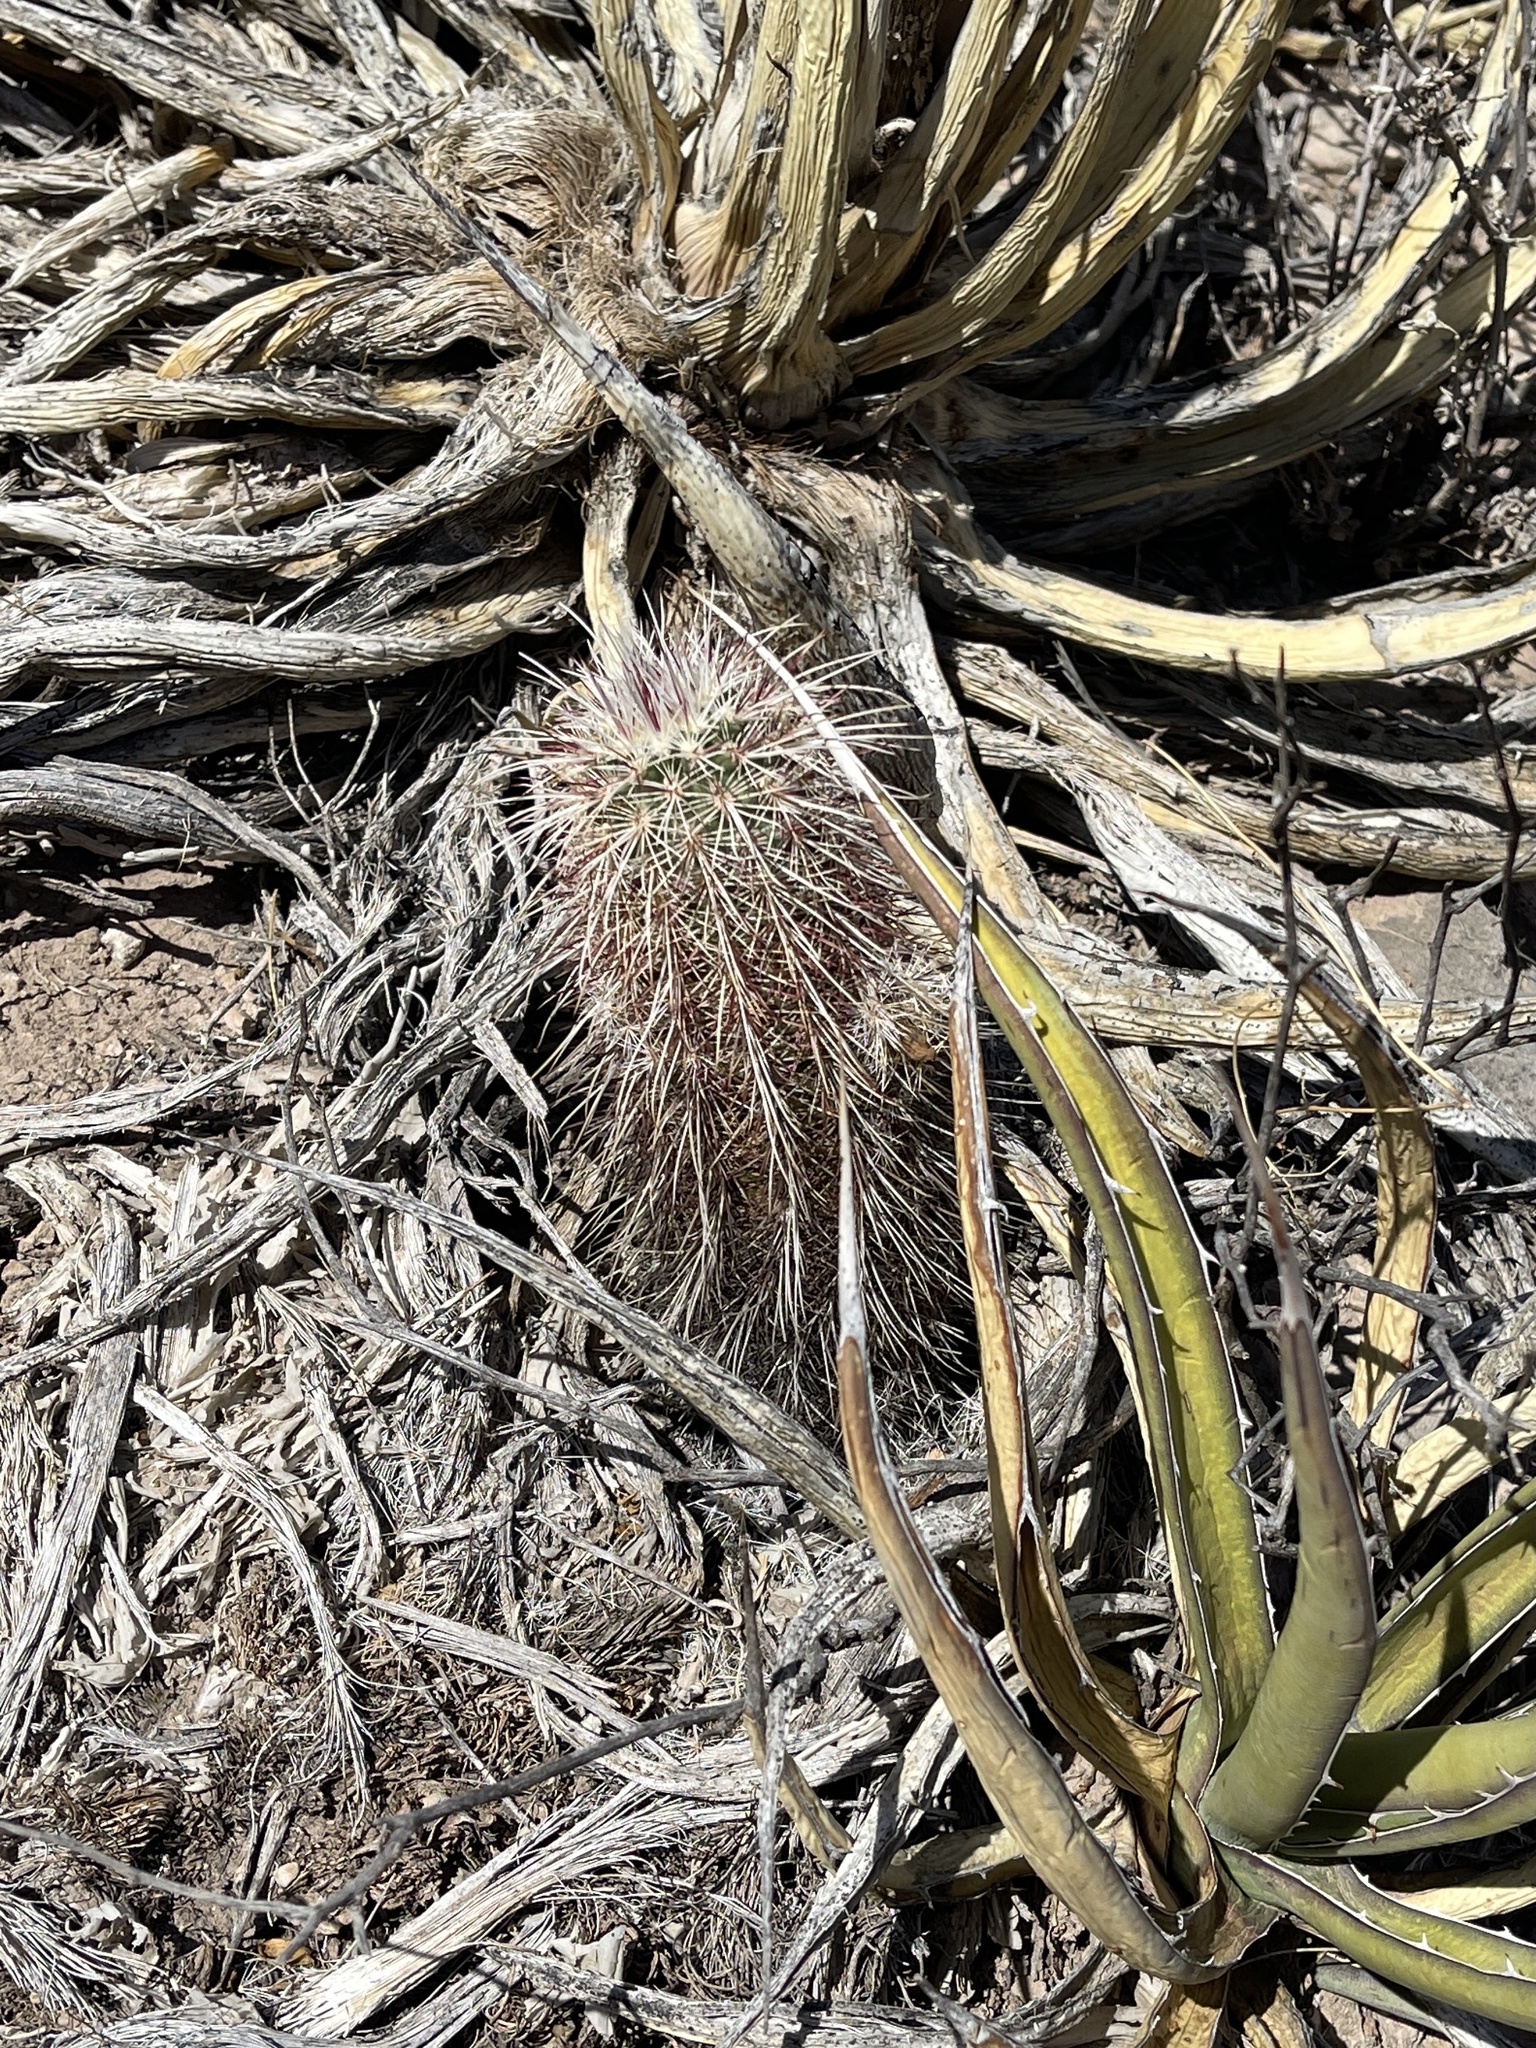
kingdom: Plantae
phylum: Tracheophyta
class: Magnoliopsida
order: Caryophyllales
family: Cactaceae
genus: Echinocereus
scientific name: Echinocereus viridiflorus
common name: Nylon hedgehog cactus
